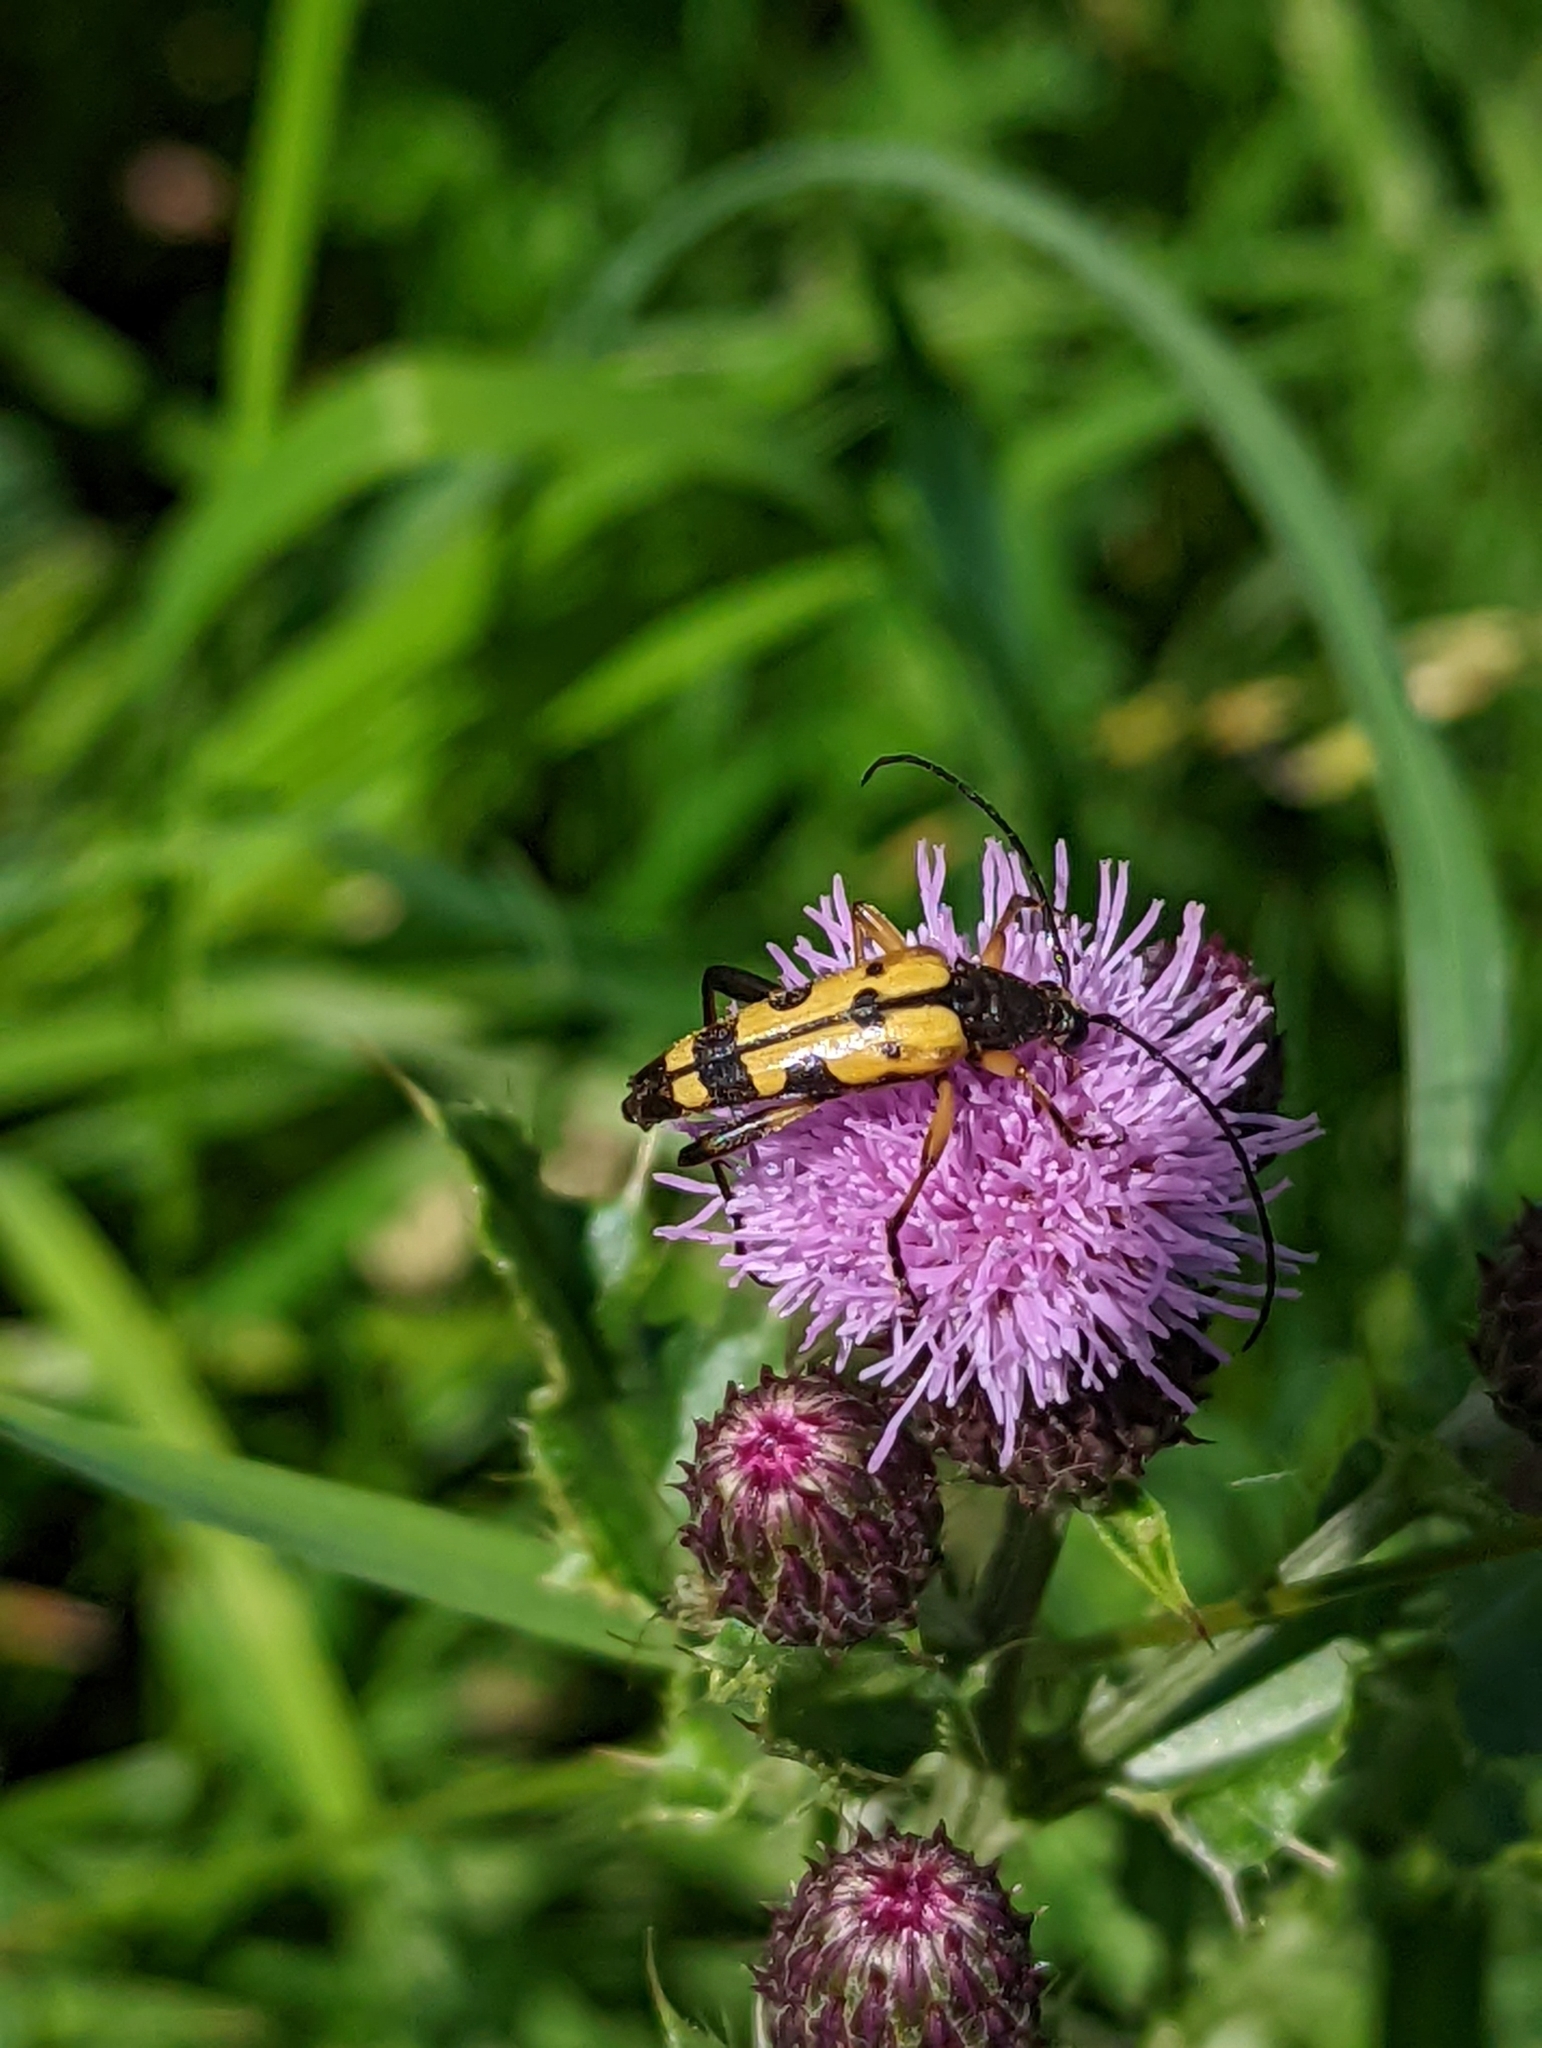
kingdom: Animalia
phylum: Arthropoda
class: Insecta
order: Coleoptera
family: Cerambycidae
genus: Rutpela
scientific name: Rutpela maculata
